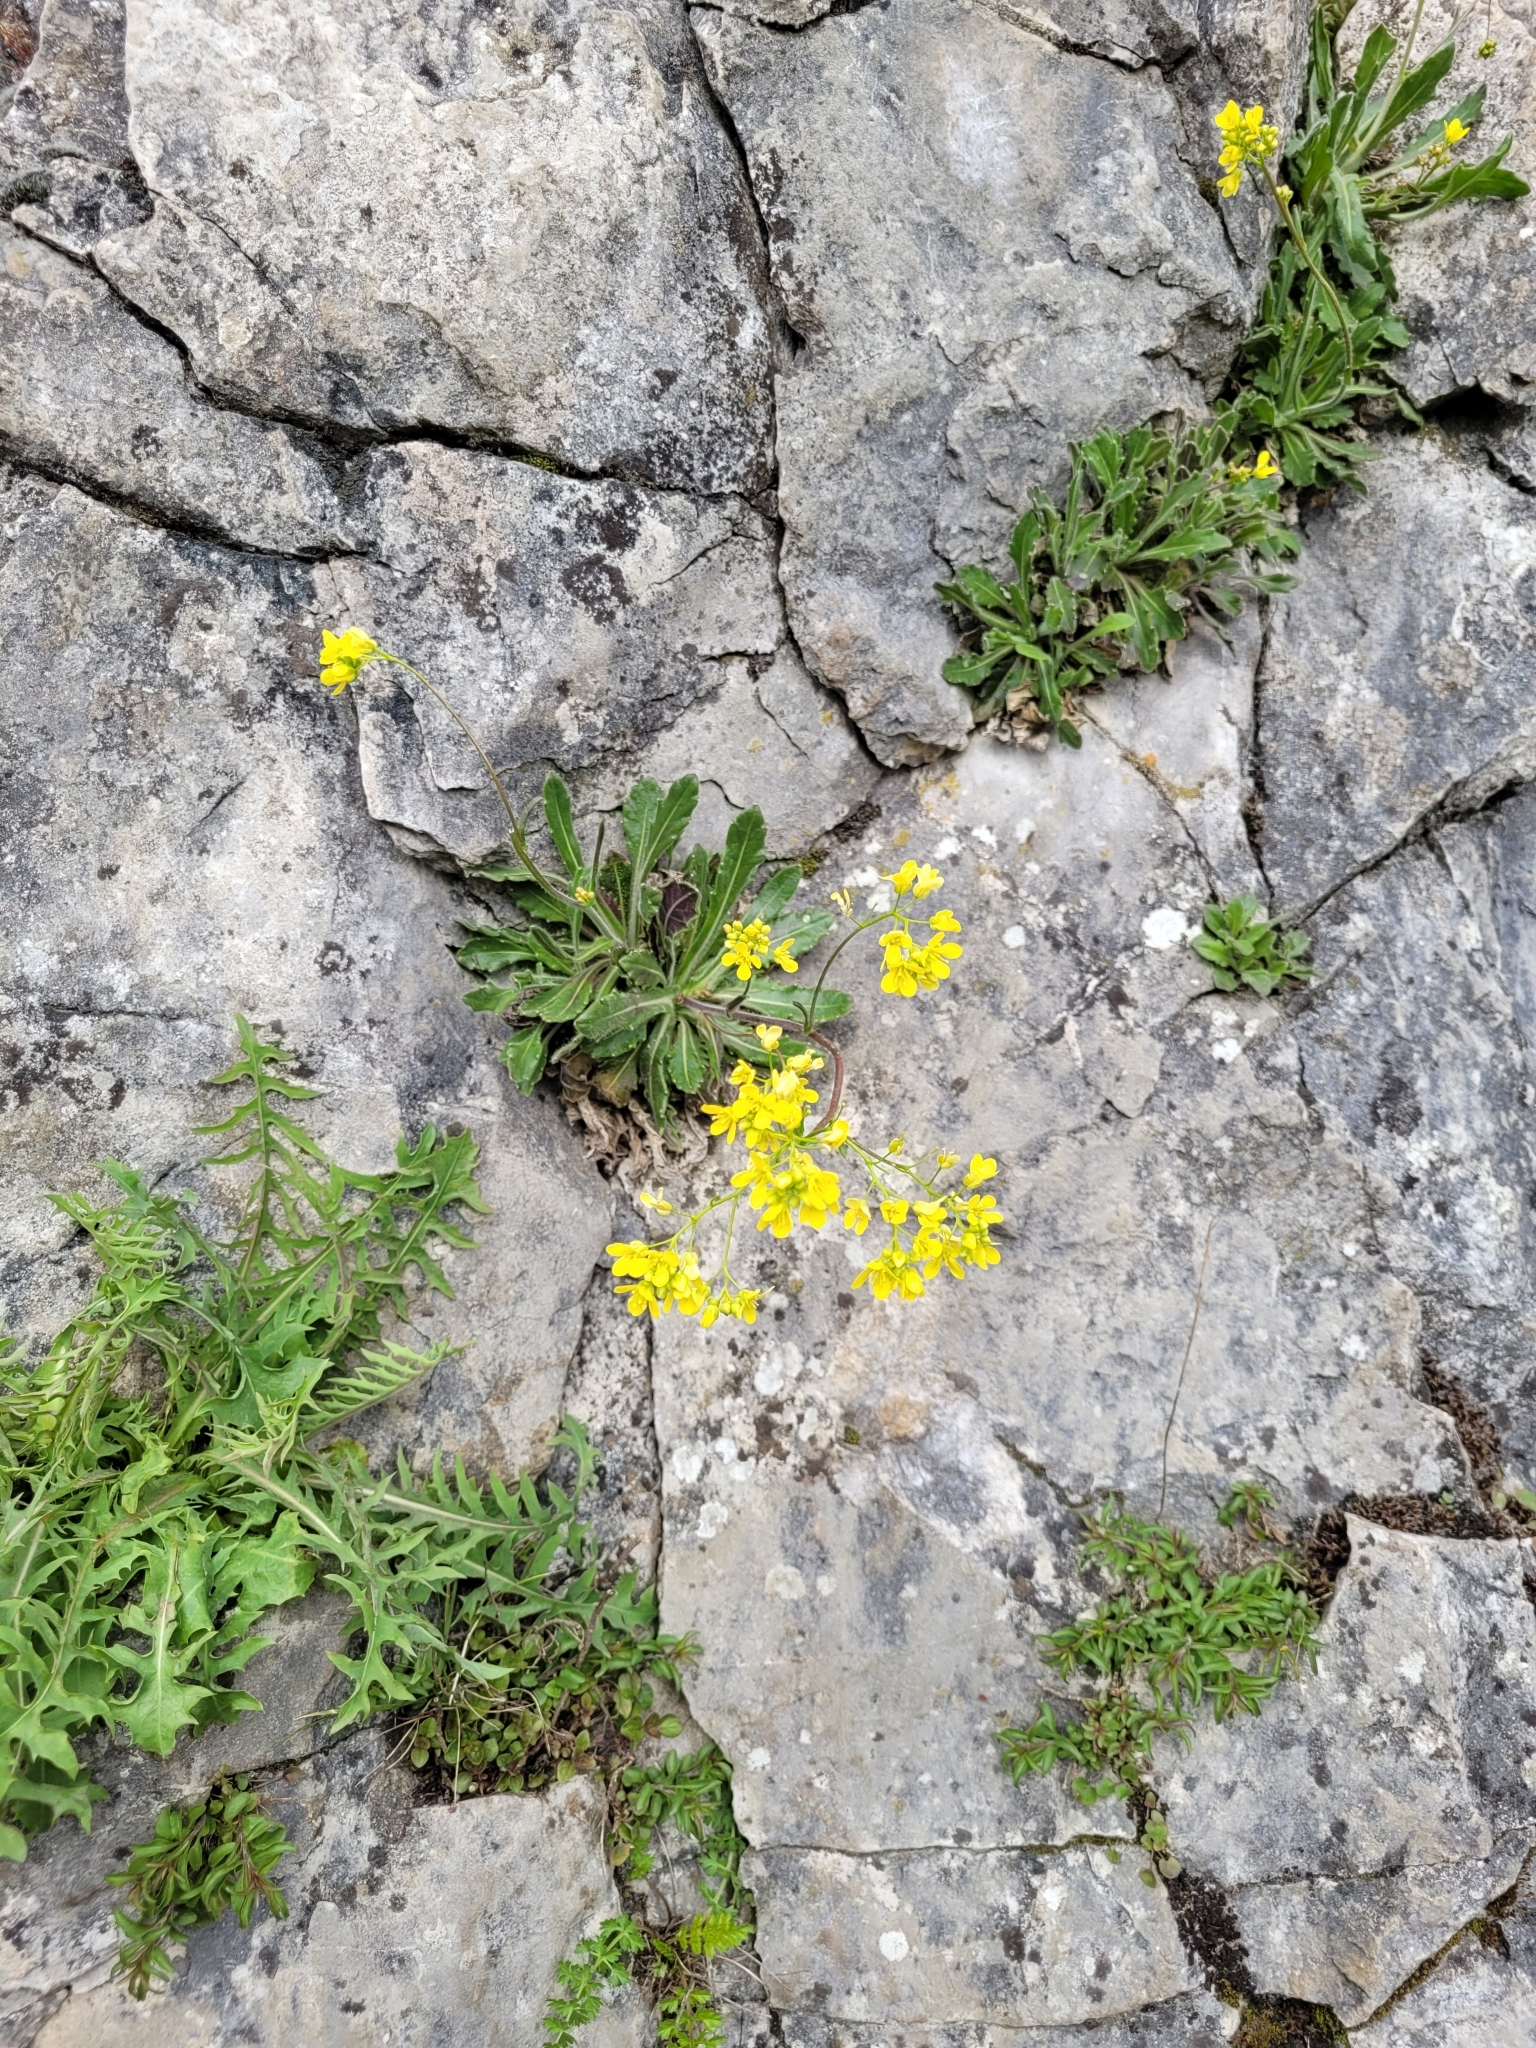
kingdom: Plantae
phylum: Tracheophyta
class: Magnoliopsida
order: Brassicales
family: Brassicaceae
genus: Biscutella
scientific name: Biscutella laevigata
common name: Buckler mustard
